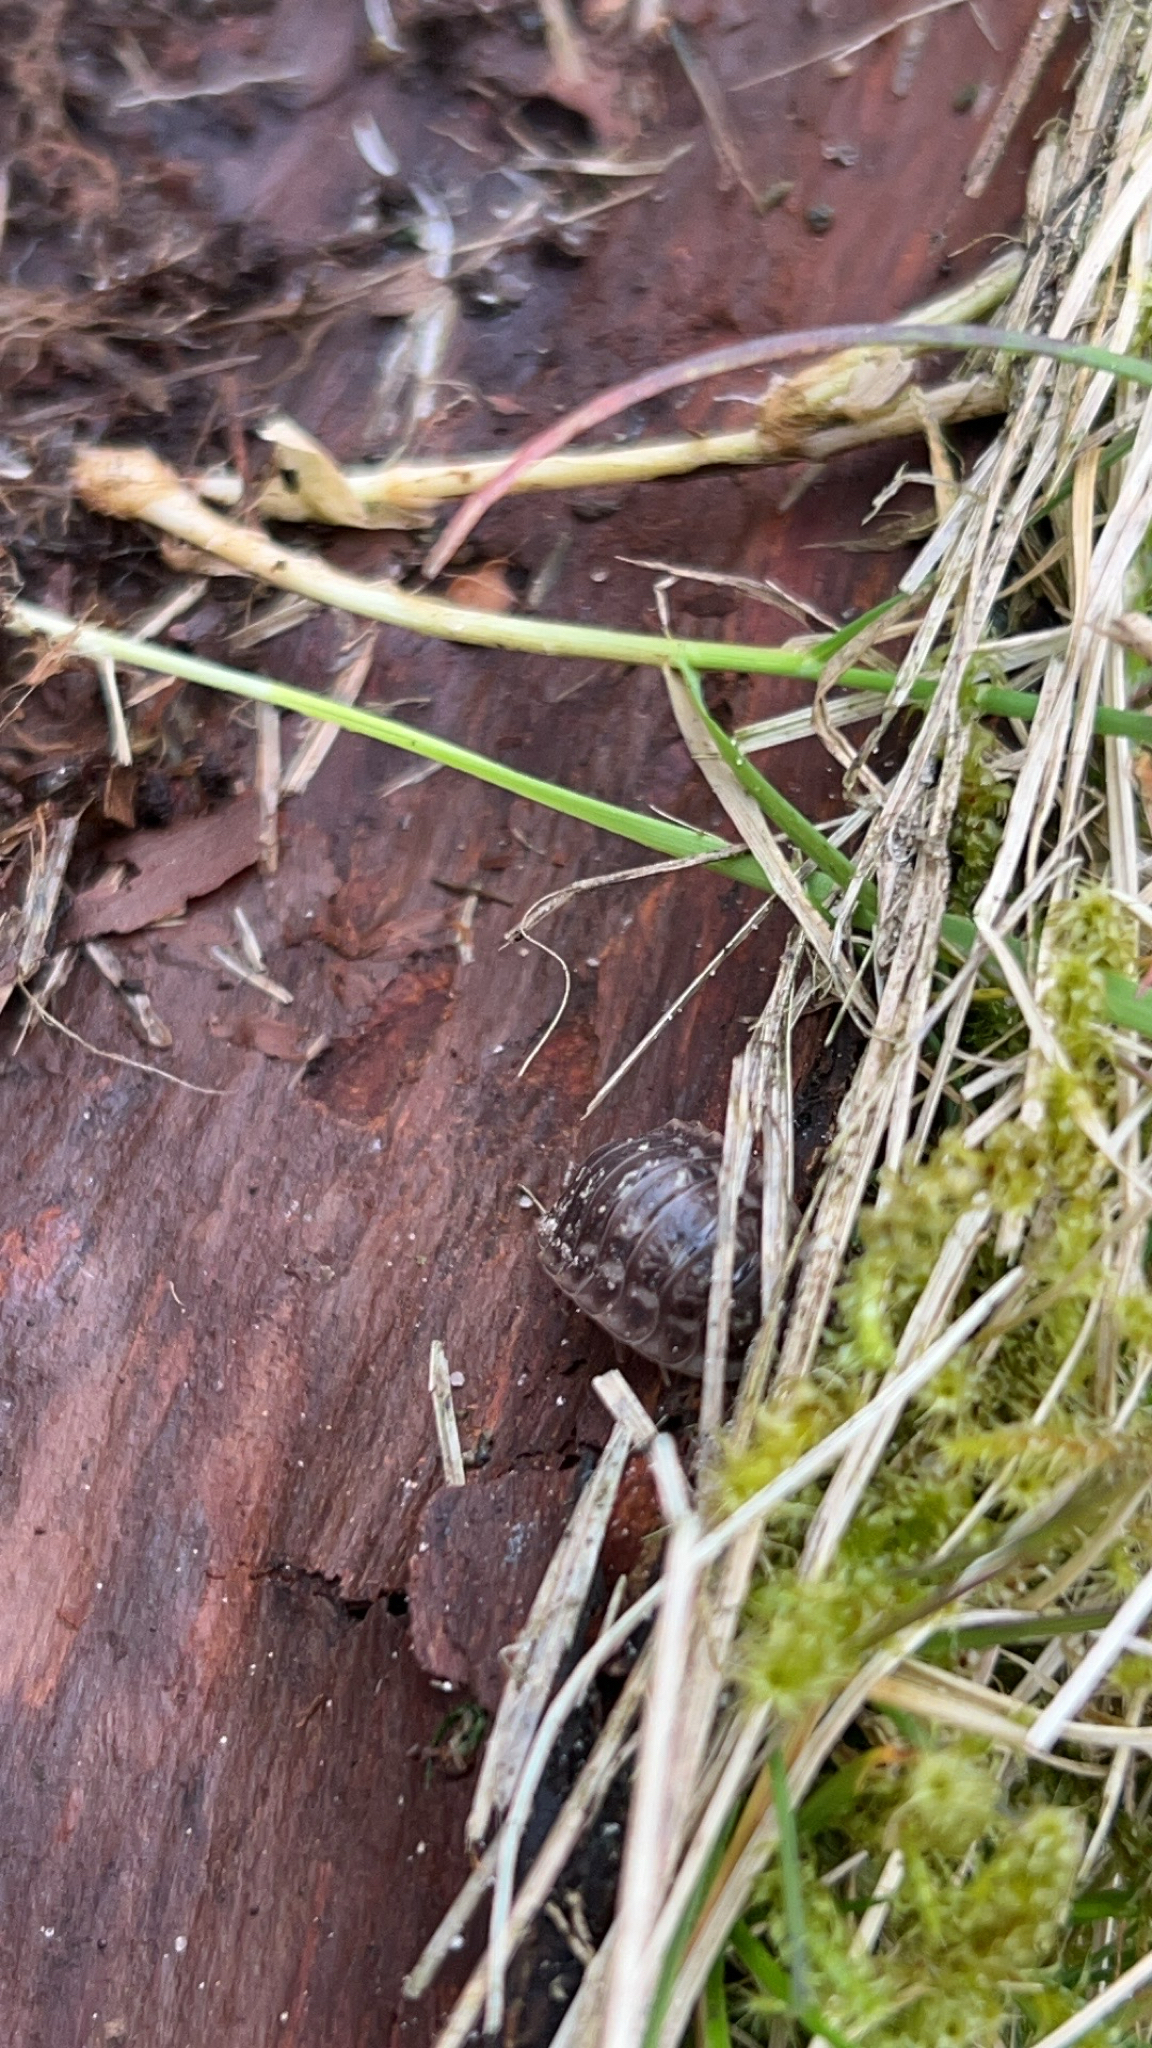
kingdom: Animalia
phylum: Arthropoda
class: Malacostraca
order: Isopoda
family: Oniscidae
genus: Oniscus
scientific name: Oniscus asellus
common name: Common shiny woodlouse
